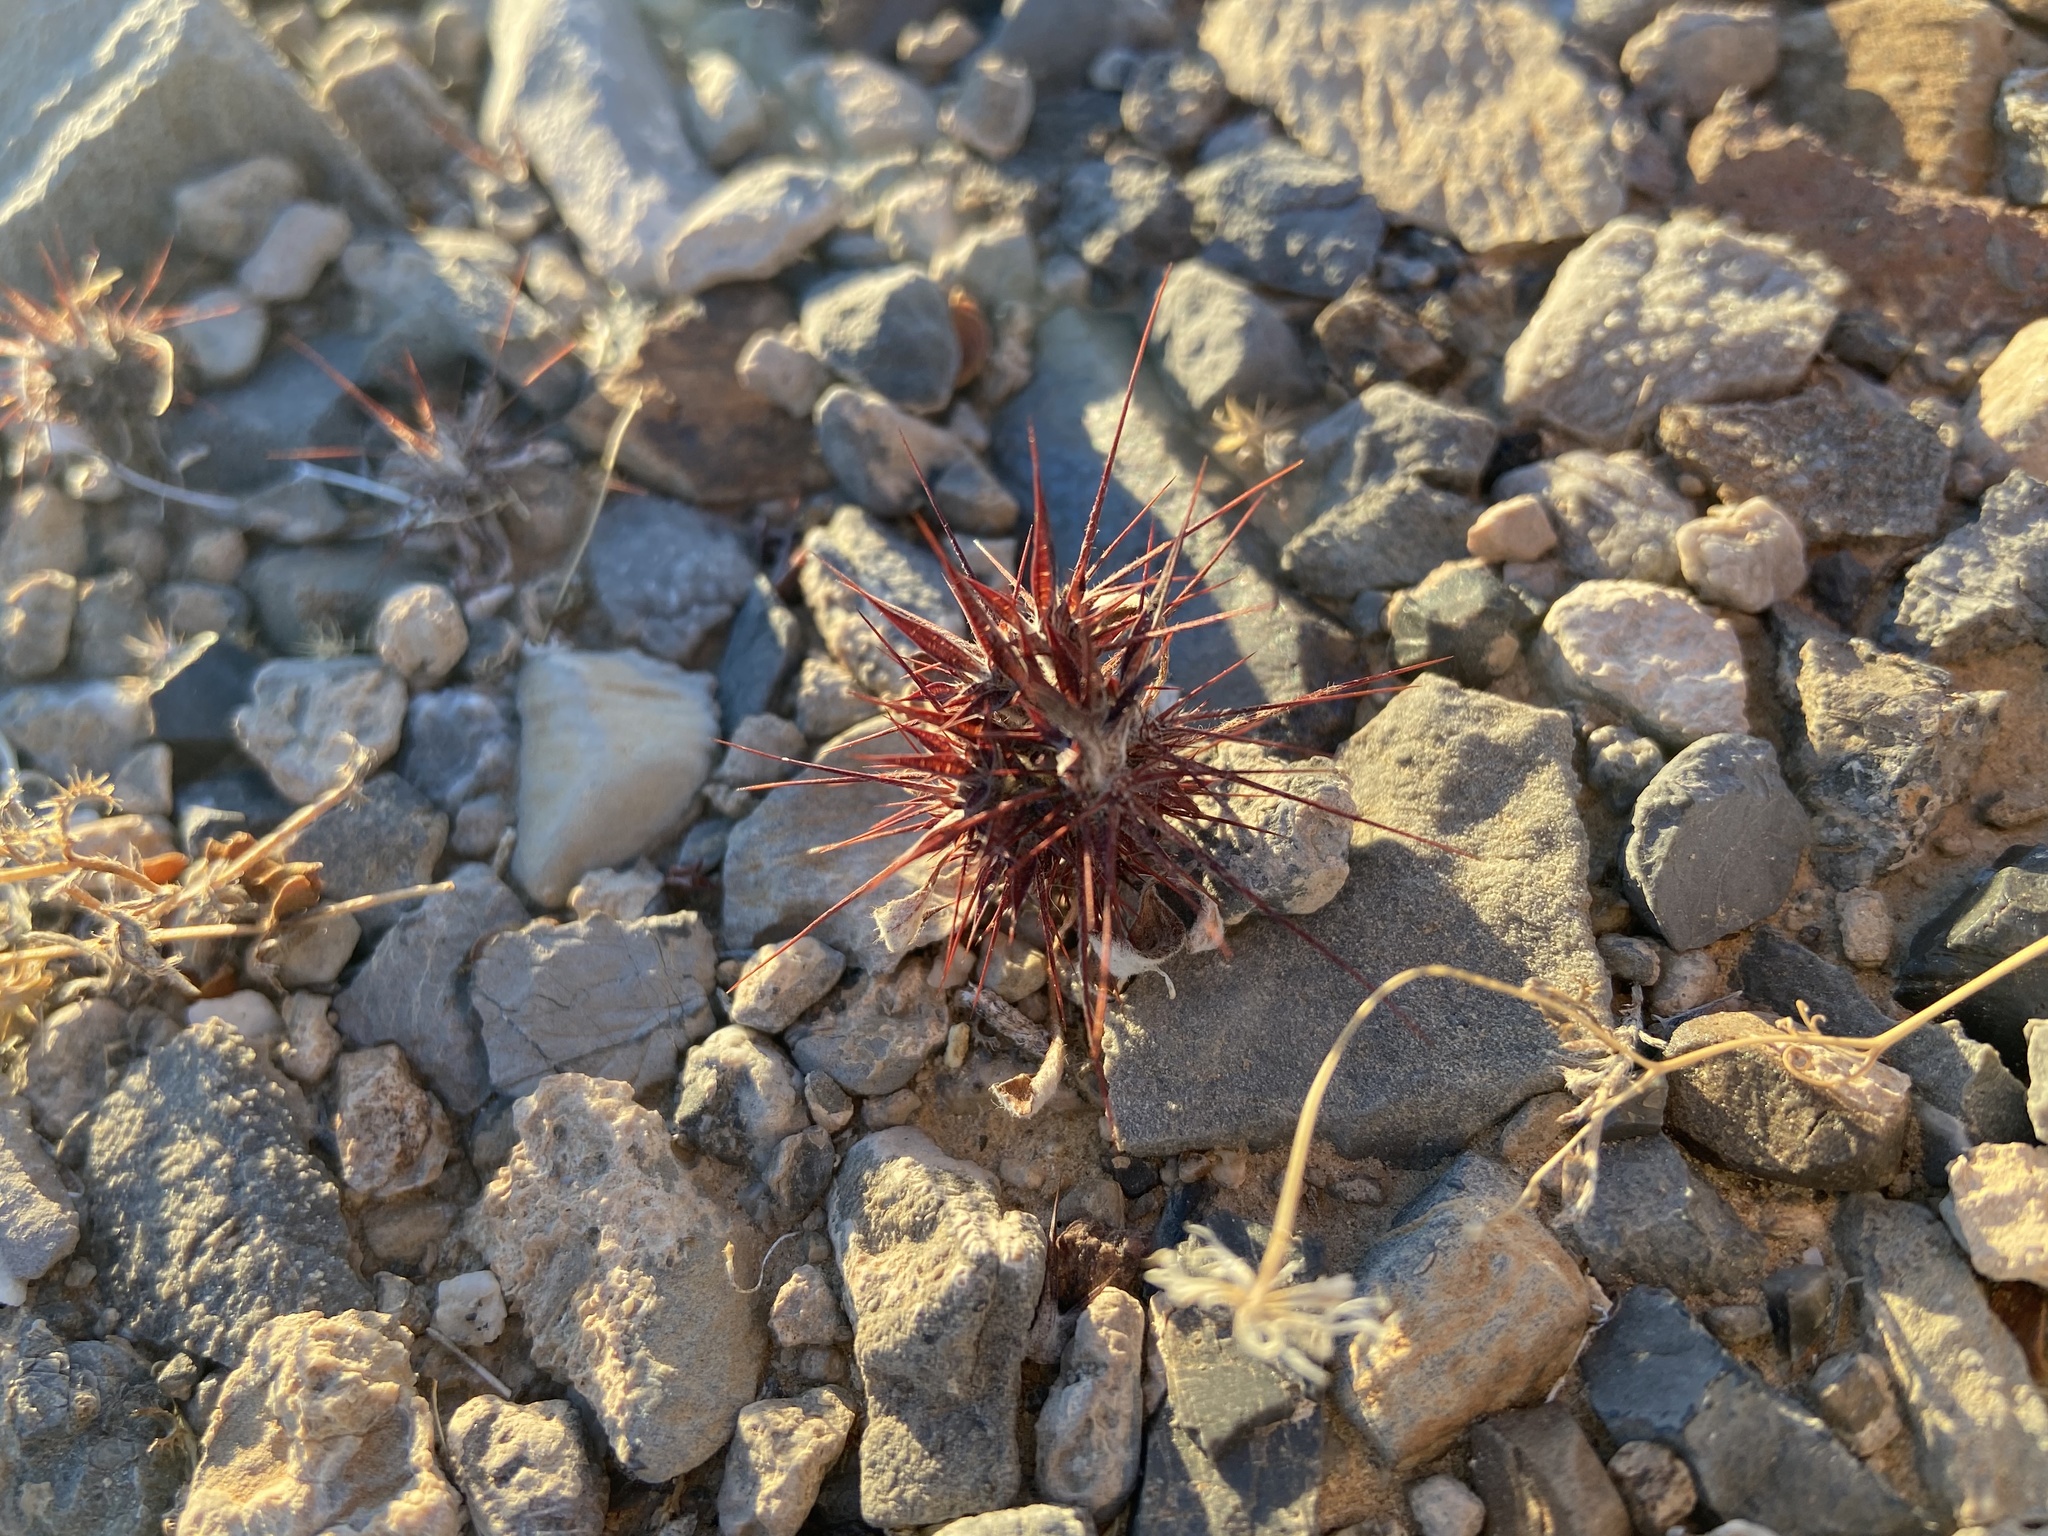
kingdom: Plantae
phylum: Tracheophyta
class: Magnoliopsida
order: Caryophyllales
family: Polygonaceae
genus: Chorizanthe
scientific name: Chorizanthe rigida
